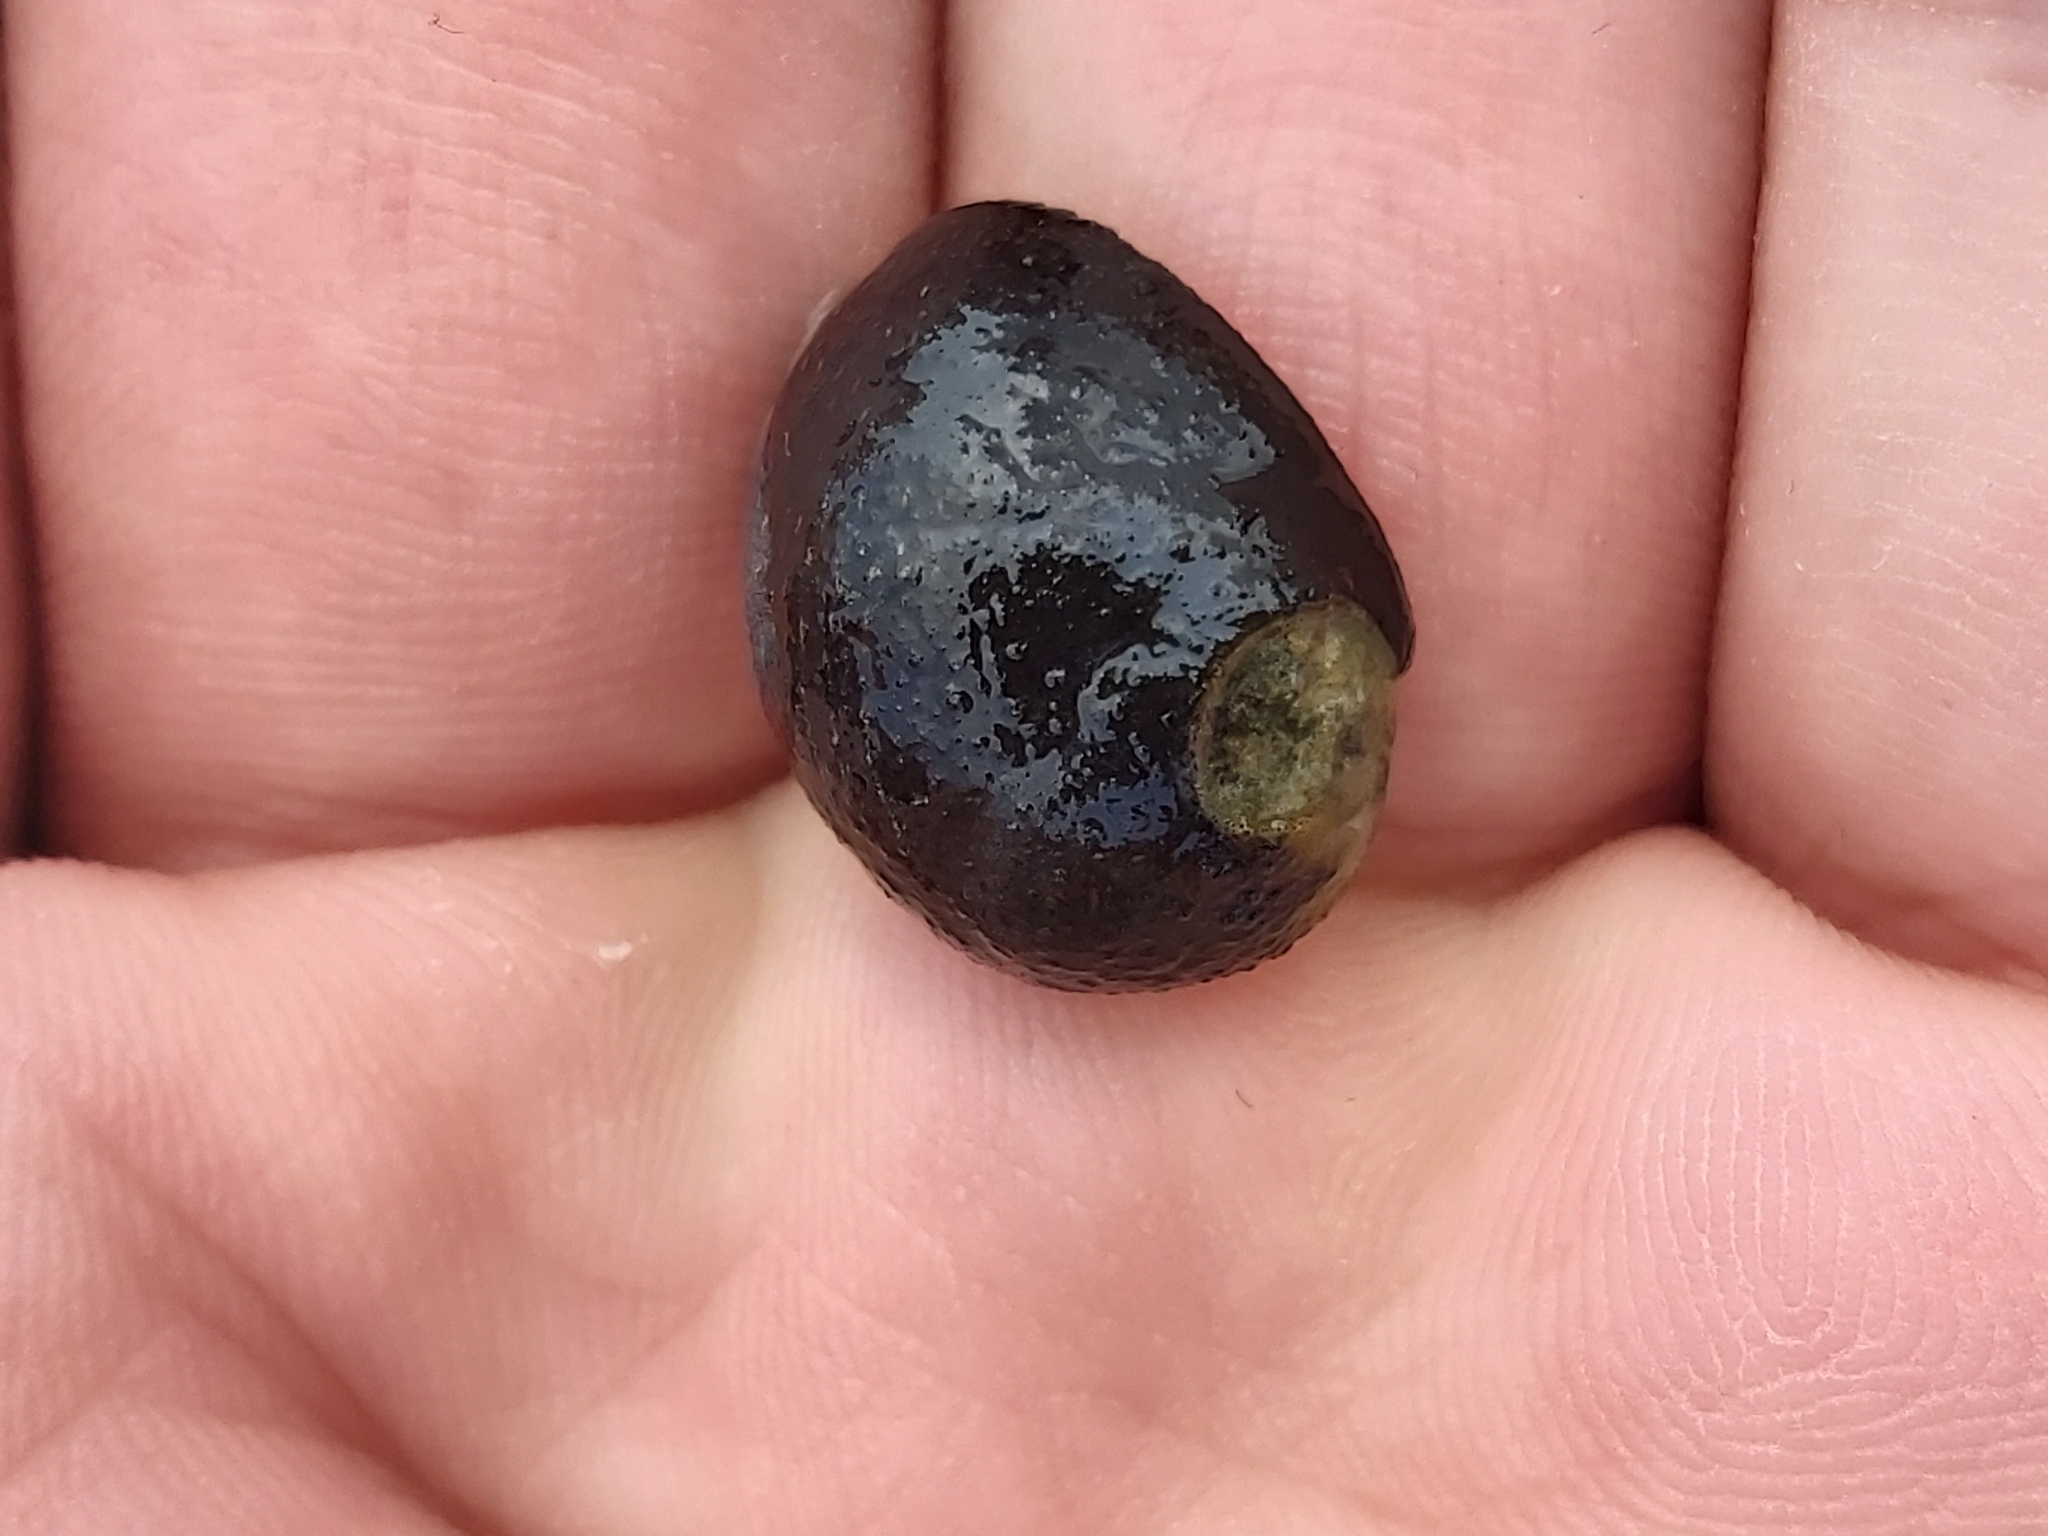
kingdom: Animalia
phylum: Mollusca
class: Gastropoda
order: Cycloneritida
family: Neritidae
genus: Nerita
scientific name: Nerita melanotragus
